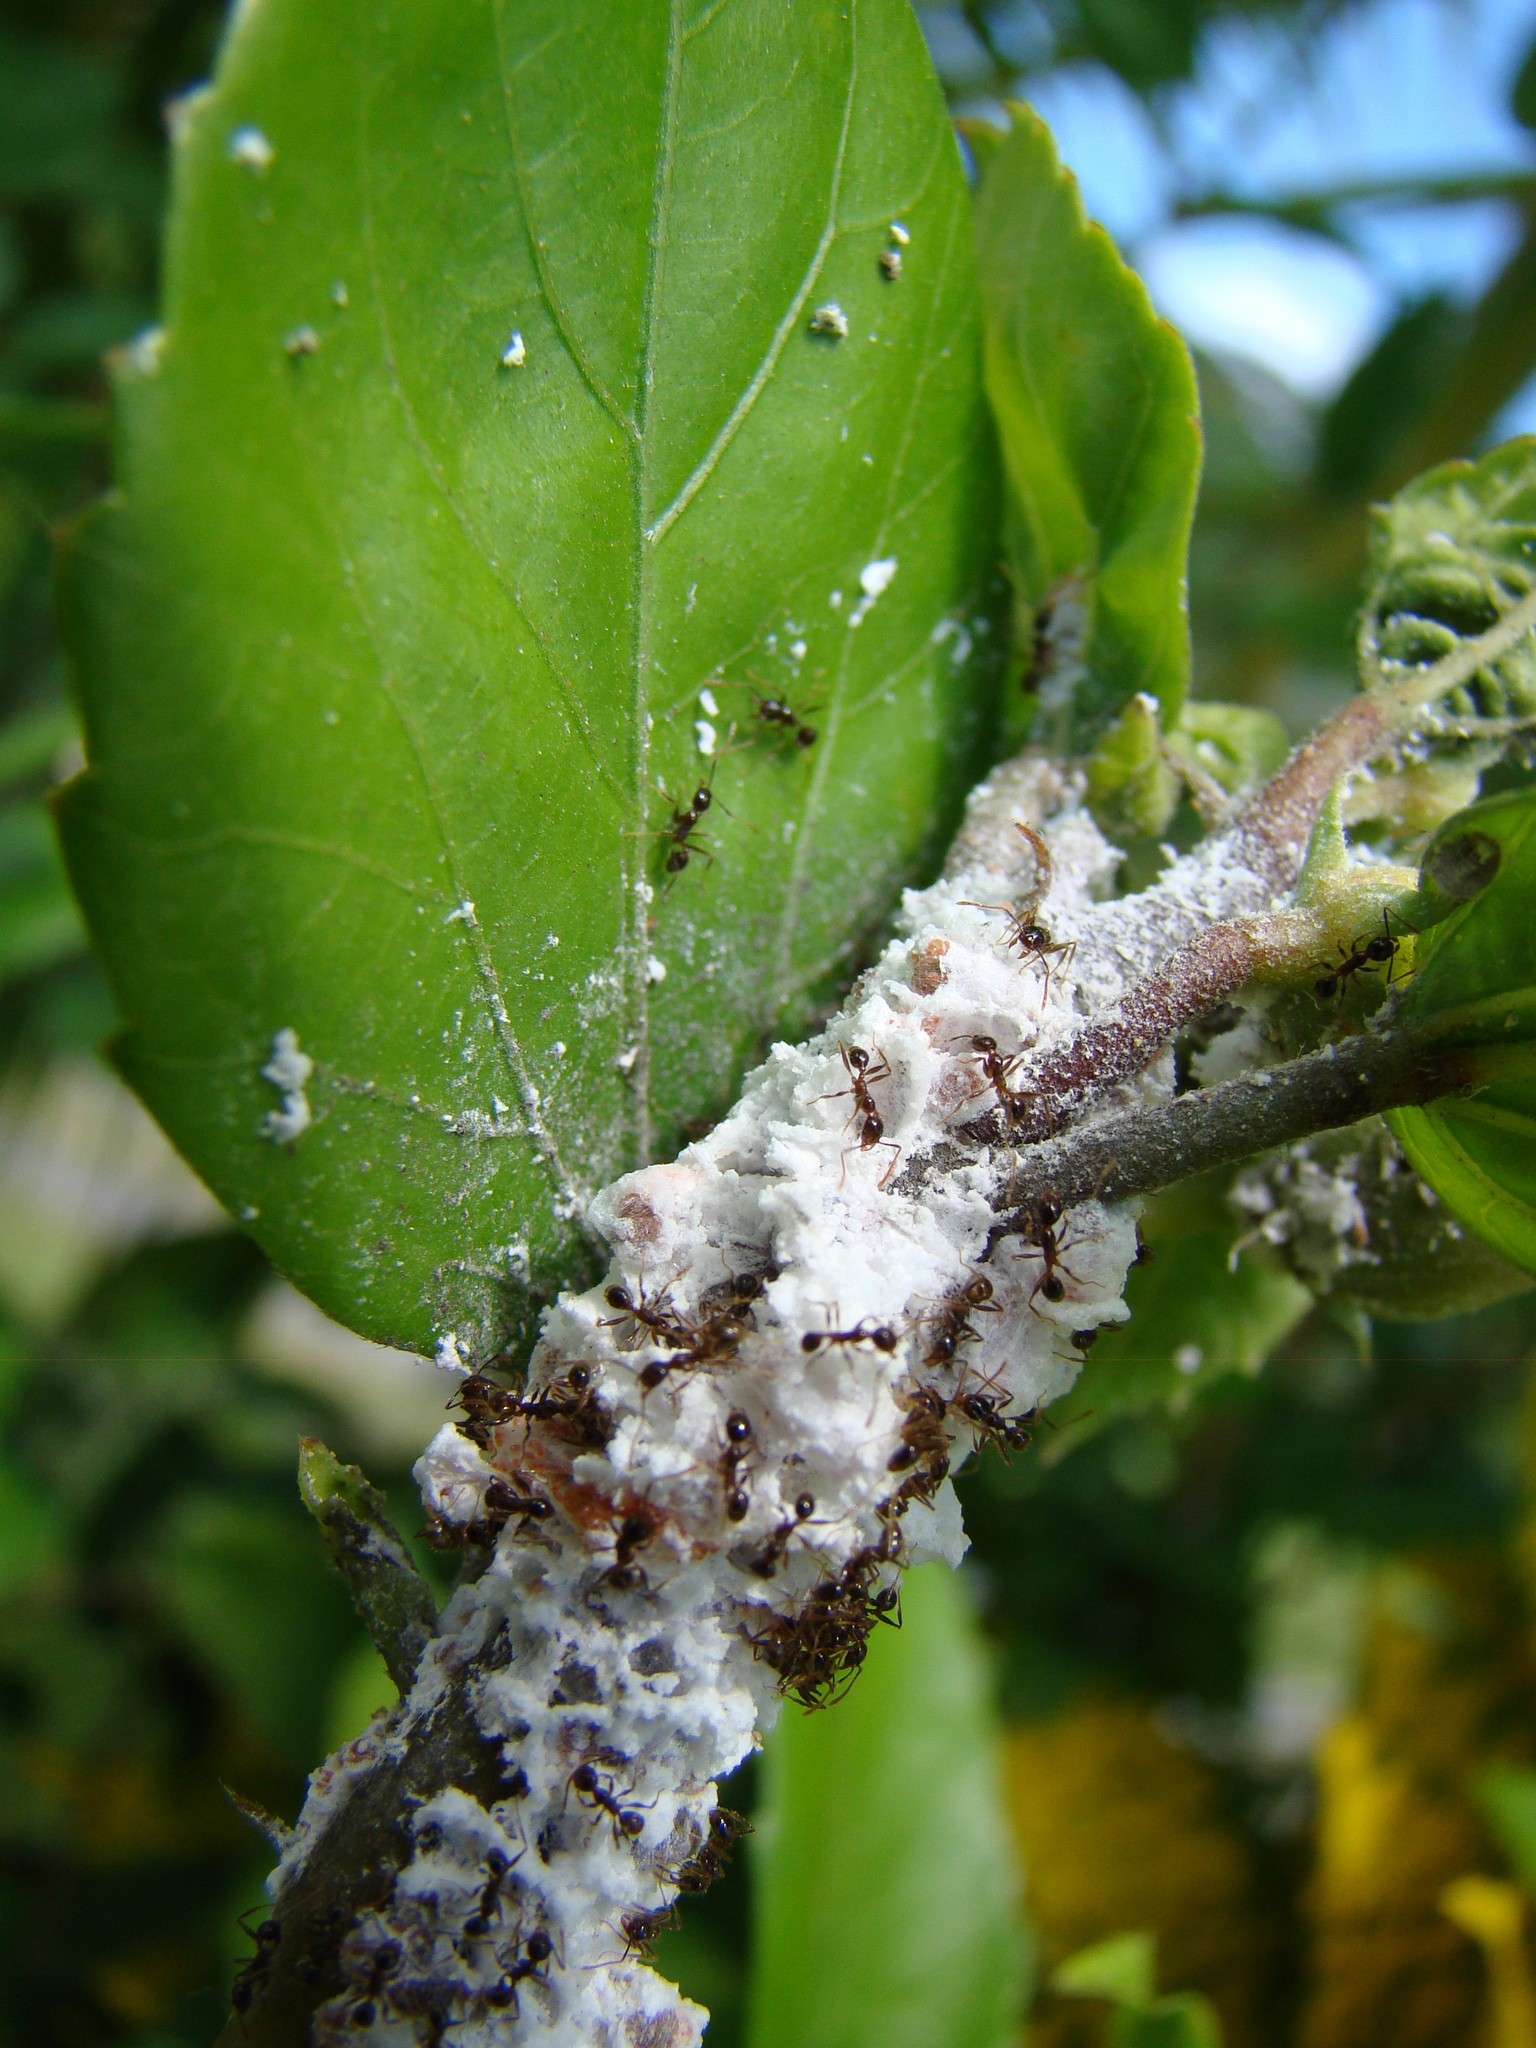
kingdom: Animalia
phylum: Arthropoda
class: Insecta
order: Hymenoptera
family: Formicidae
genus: Pheidole
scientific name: Pheidole megacephala
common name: Bigheaded ant
